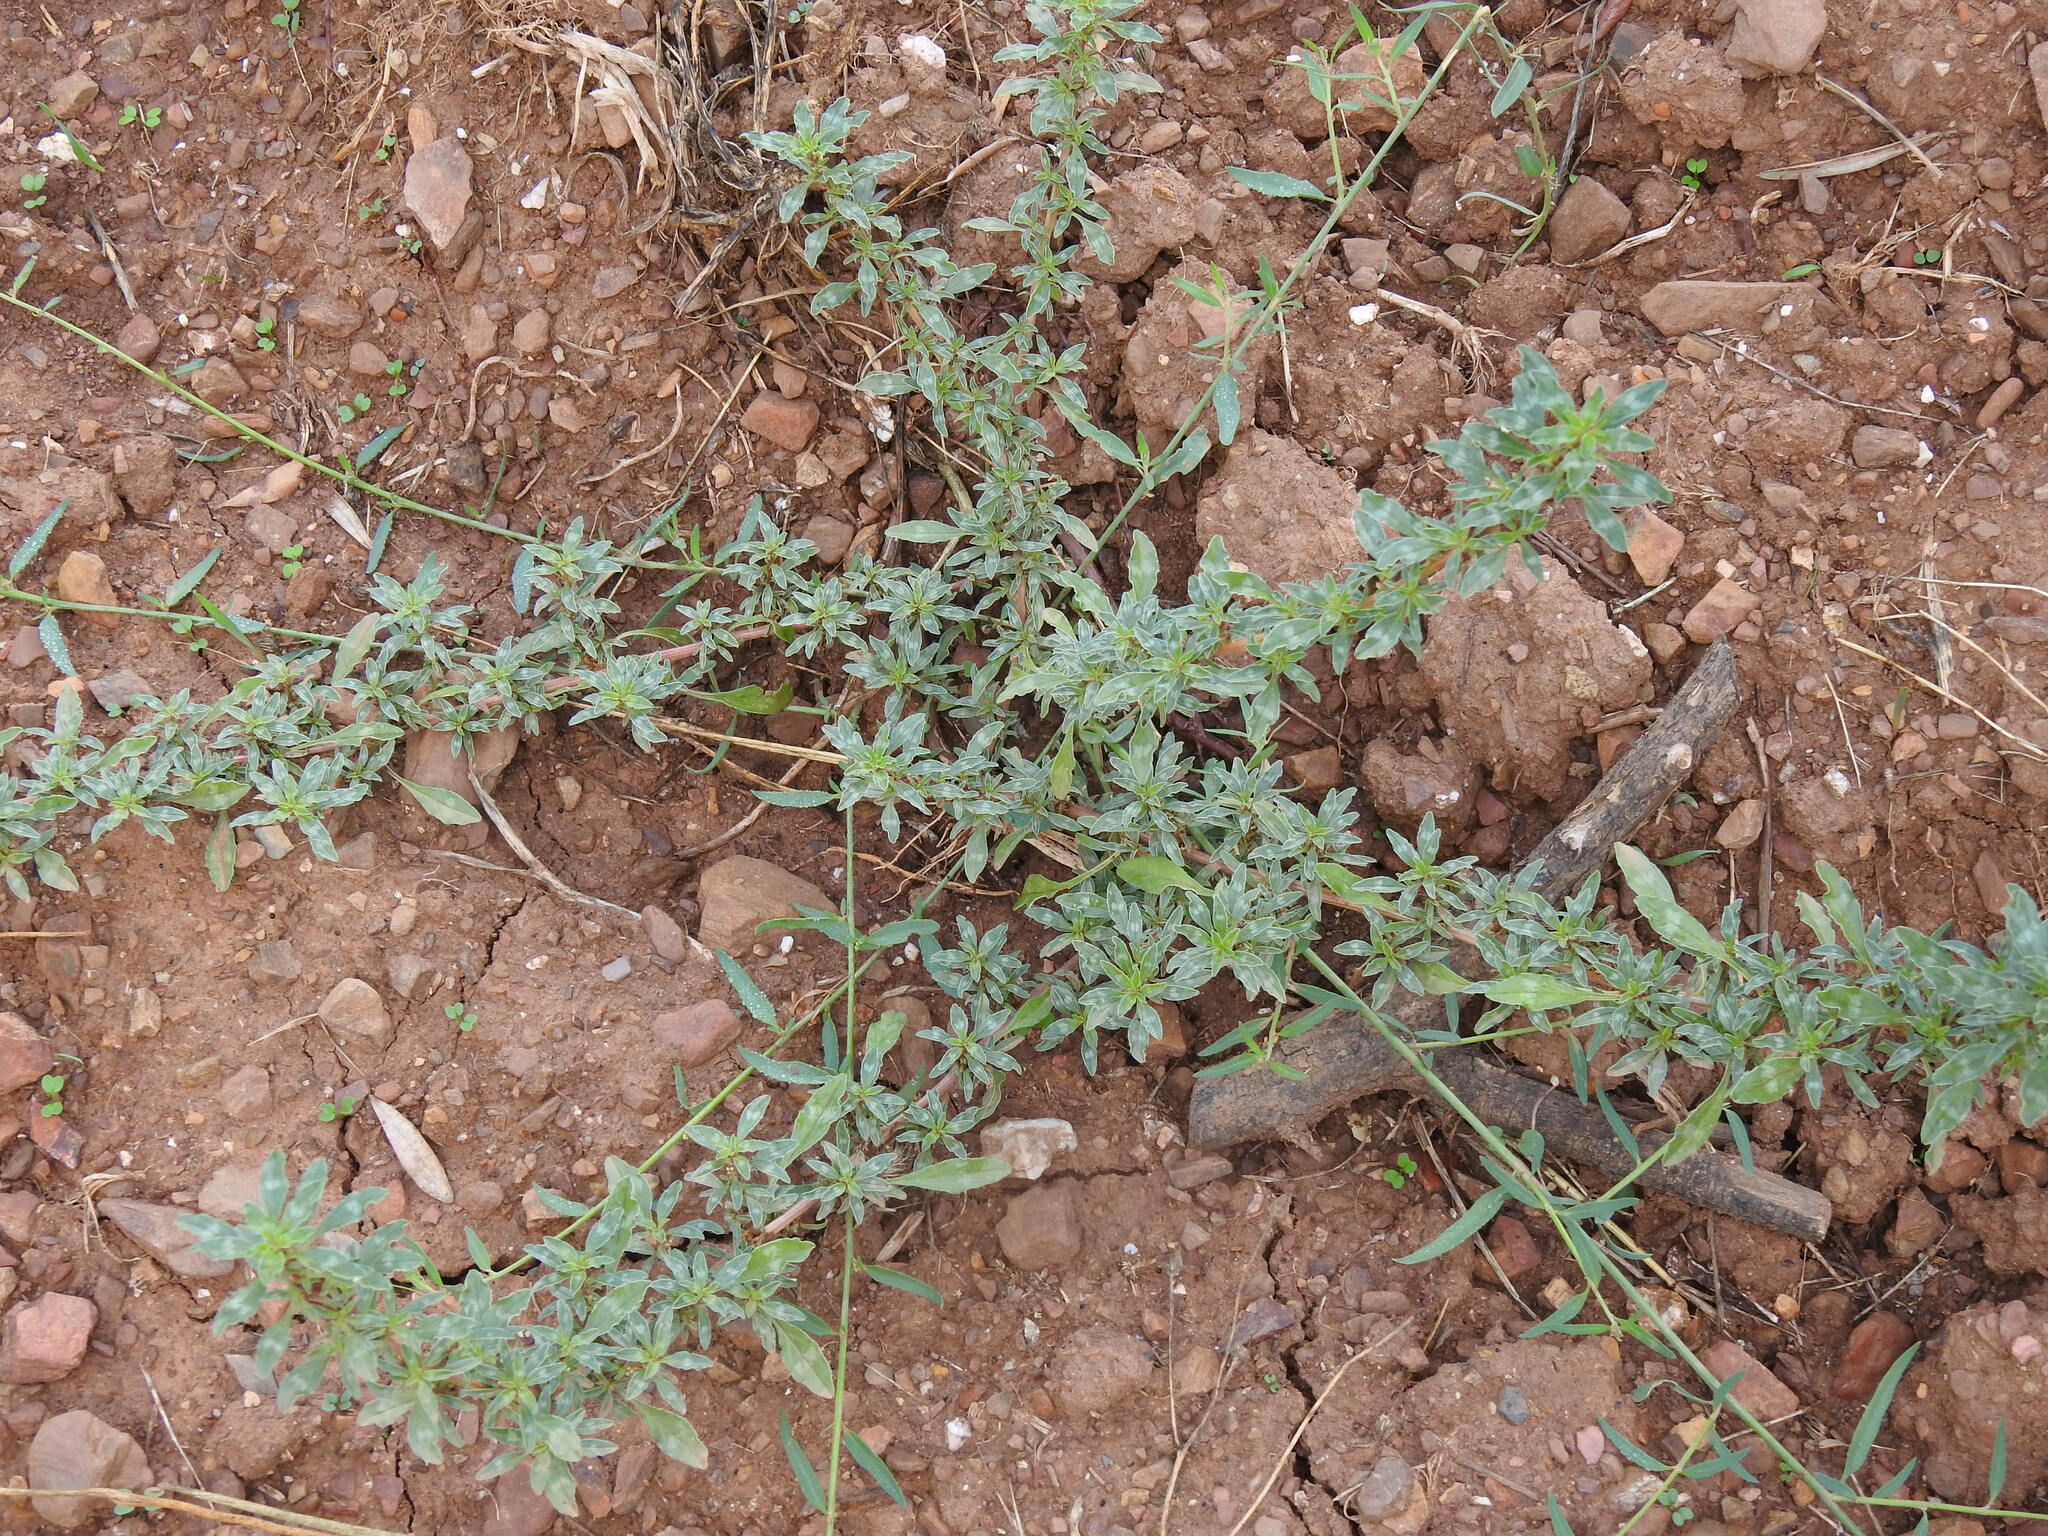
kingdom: Plantae
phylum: Tracheophyta
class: Magnoliopsida
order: Caryophyllales
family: Amaranthaceae
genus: Amaranthus
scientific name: Amaranthus blitoides
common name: Prostrate pigweed
